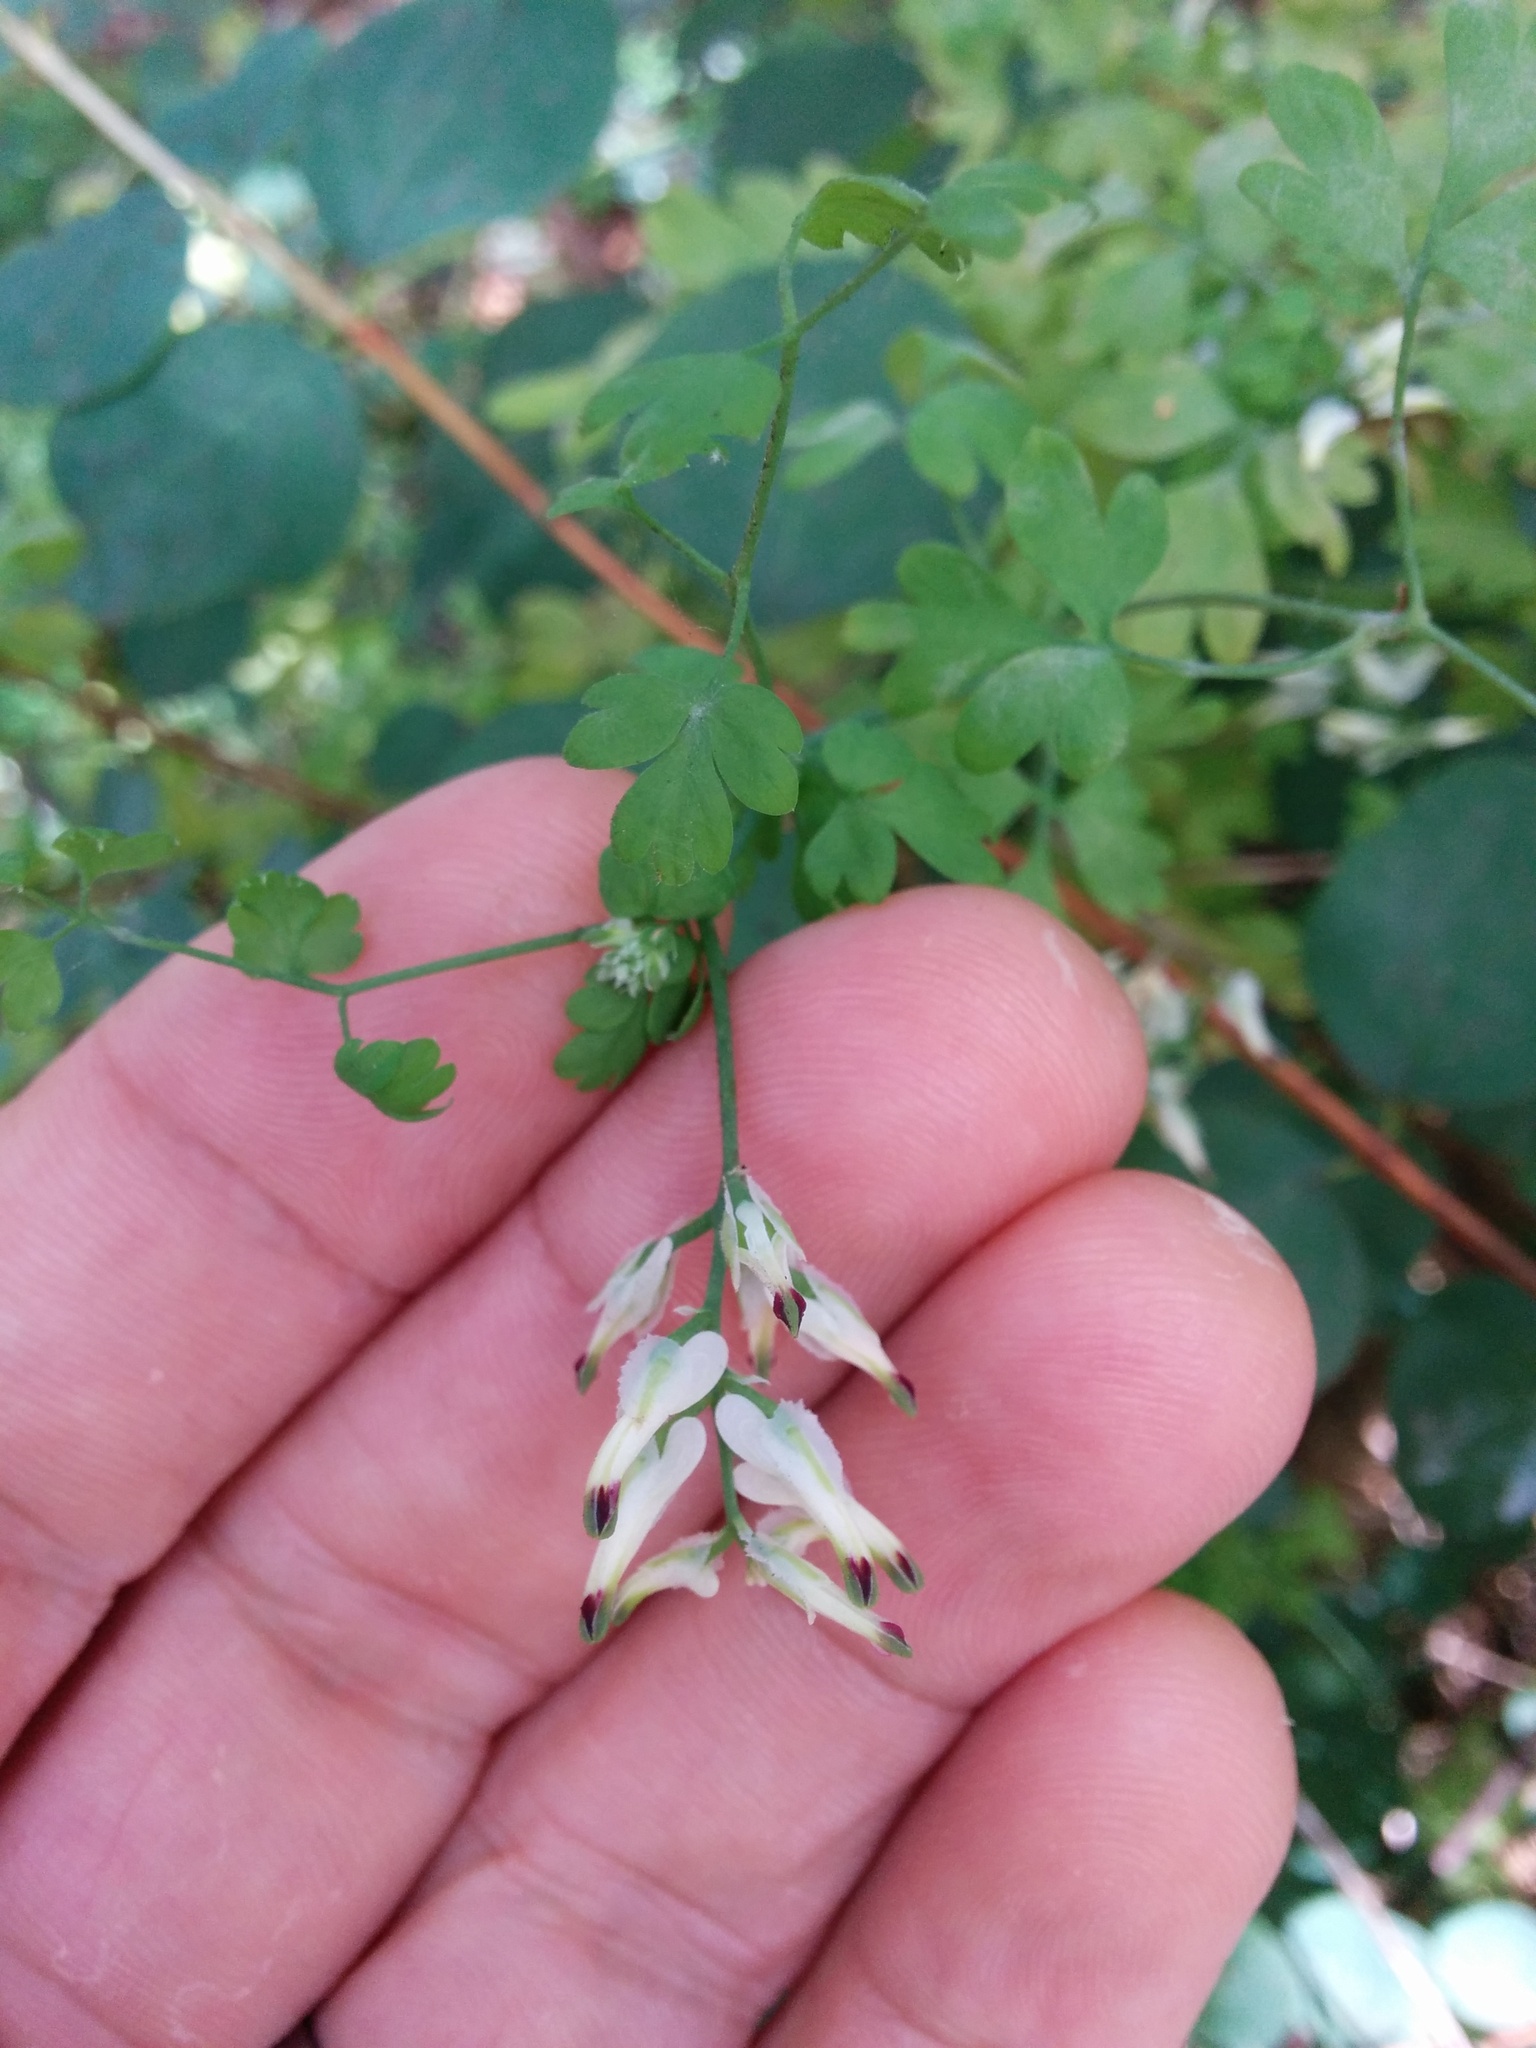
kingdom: Plantae
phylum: Tracheophyta
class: Magnoliopsida
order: Ranunculales
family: Papaveraceae
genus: Fumaria
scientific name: Fumaria capreolata
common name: White ramping-fumitory
